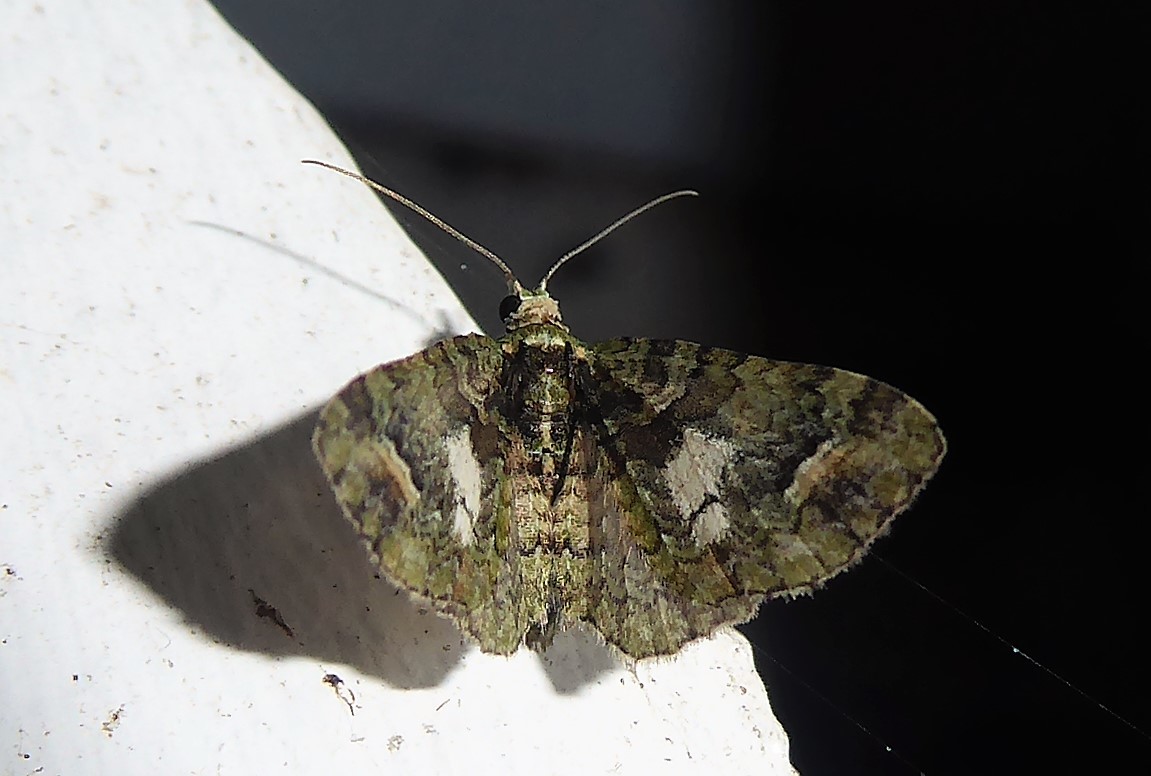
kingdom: Animalia
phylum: Arthropoda
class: Insecta
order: Lepidoptera
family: Geometridae
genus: Idaea
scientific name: Idaea mutanda
